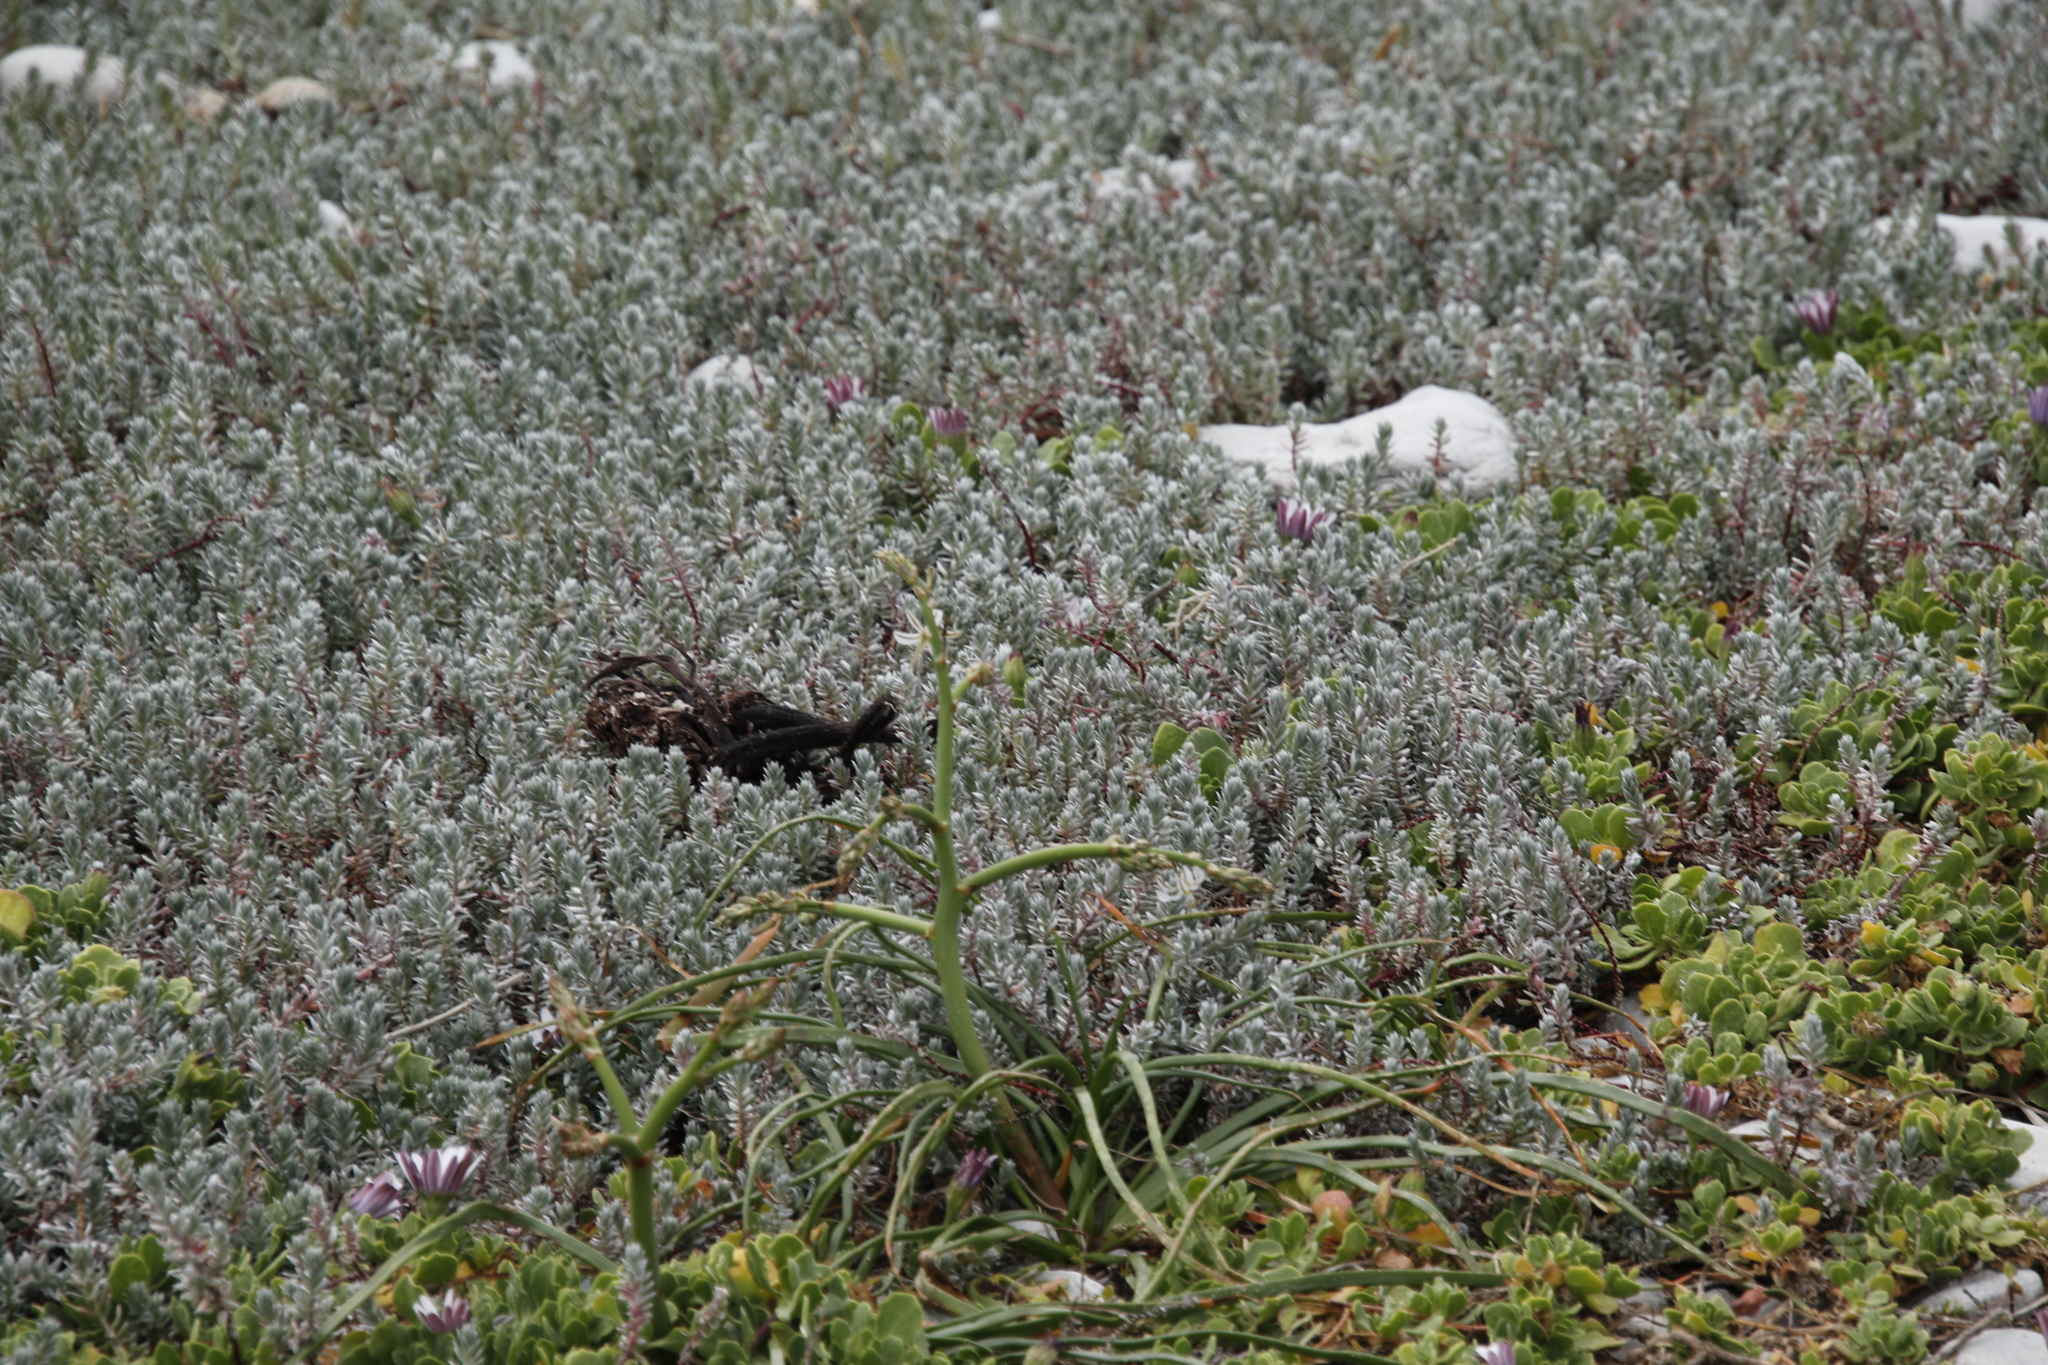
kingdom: Plantae
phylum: Tracheophyta
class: Magnoliopsida
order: Caryophyllales
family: Amaranthaceae
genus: Chenolea
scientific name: Chenolea diffusa
